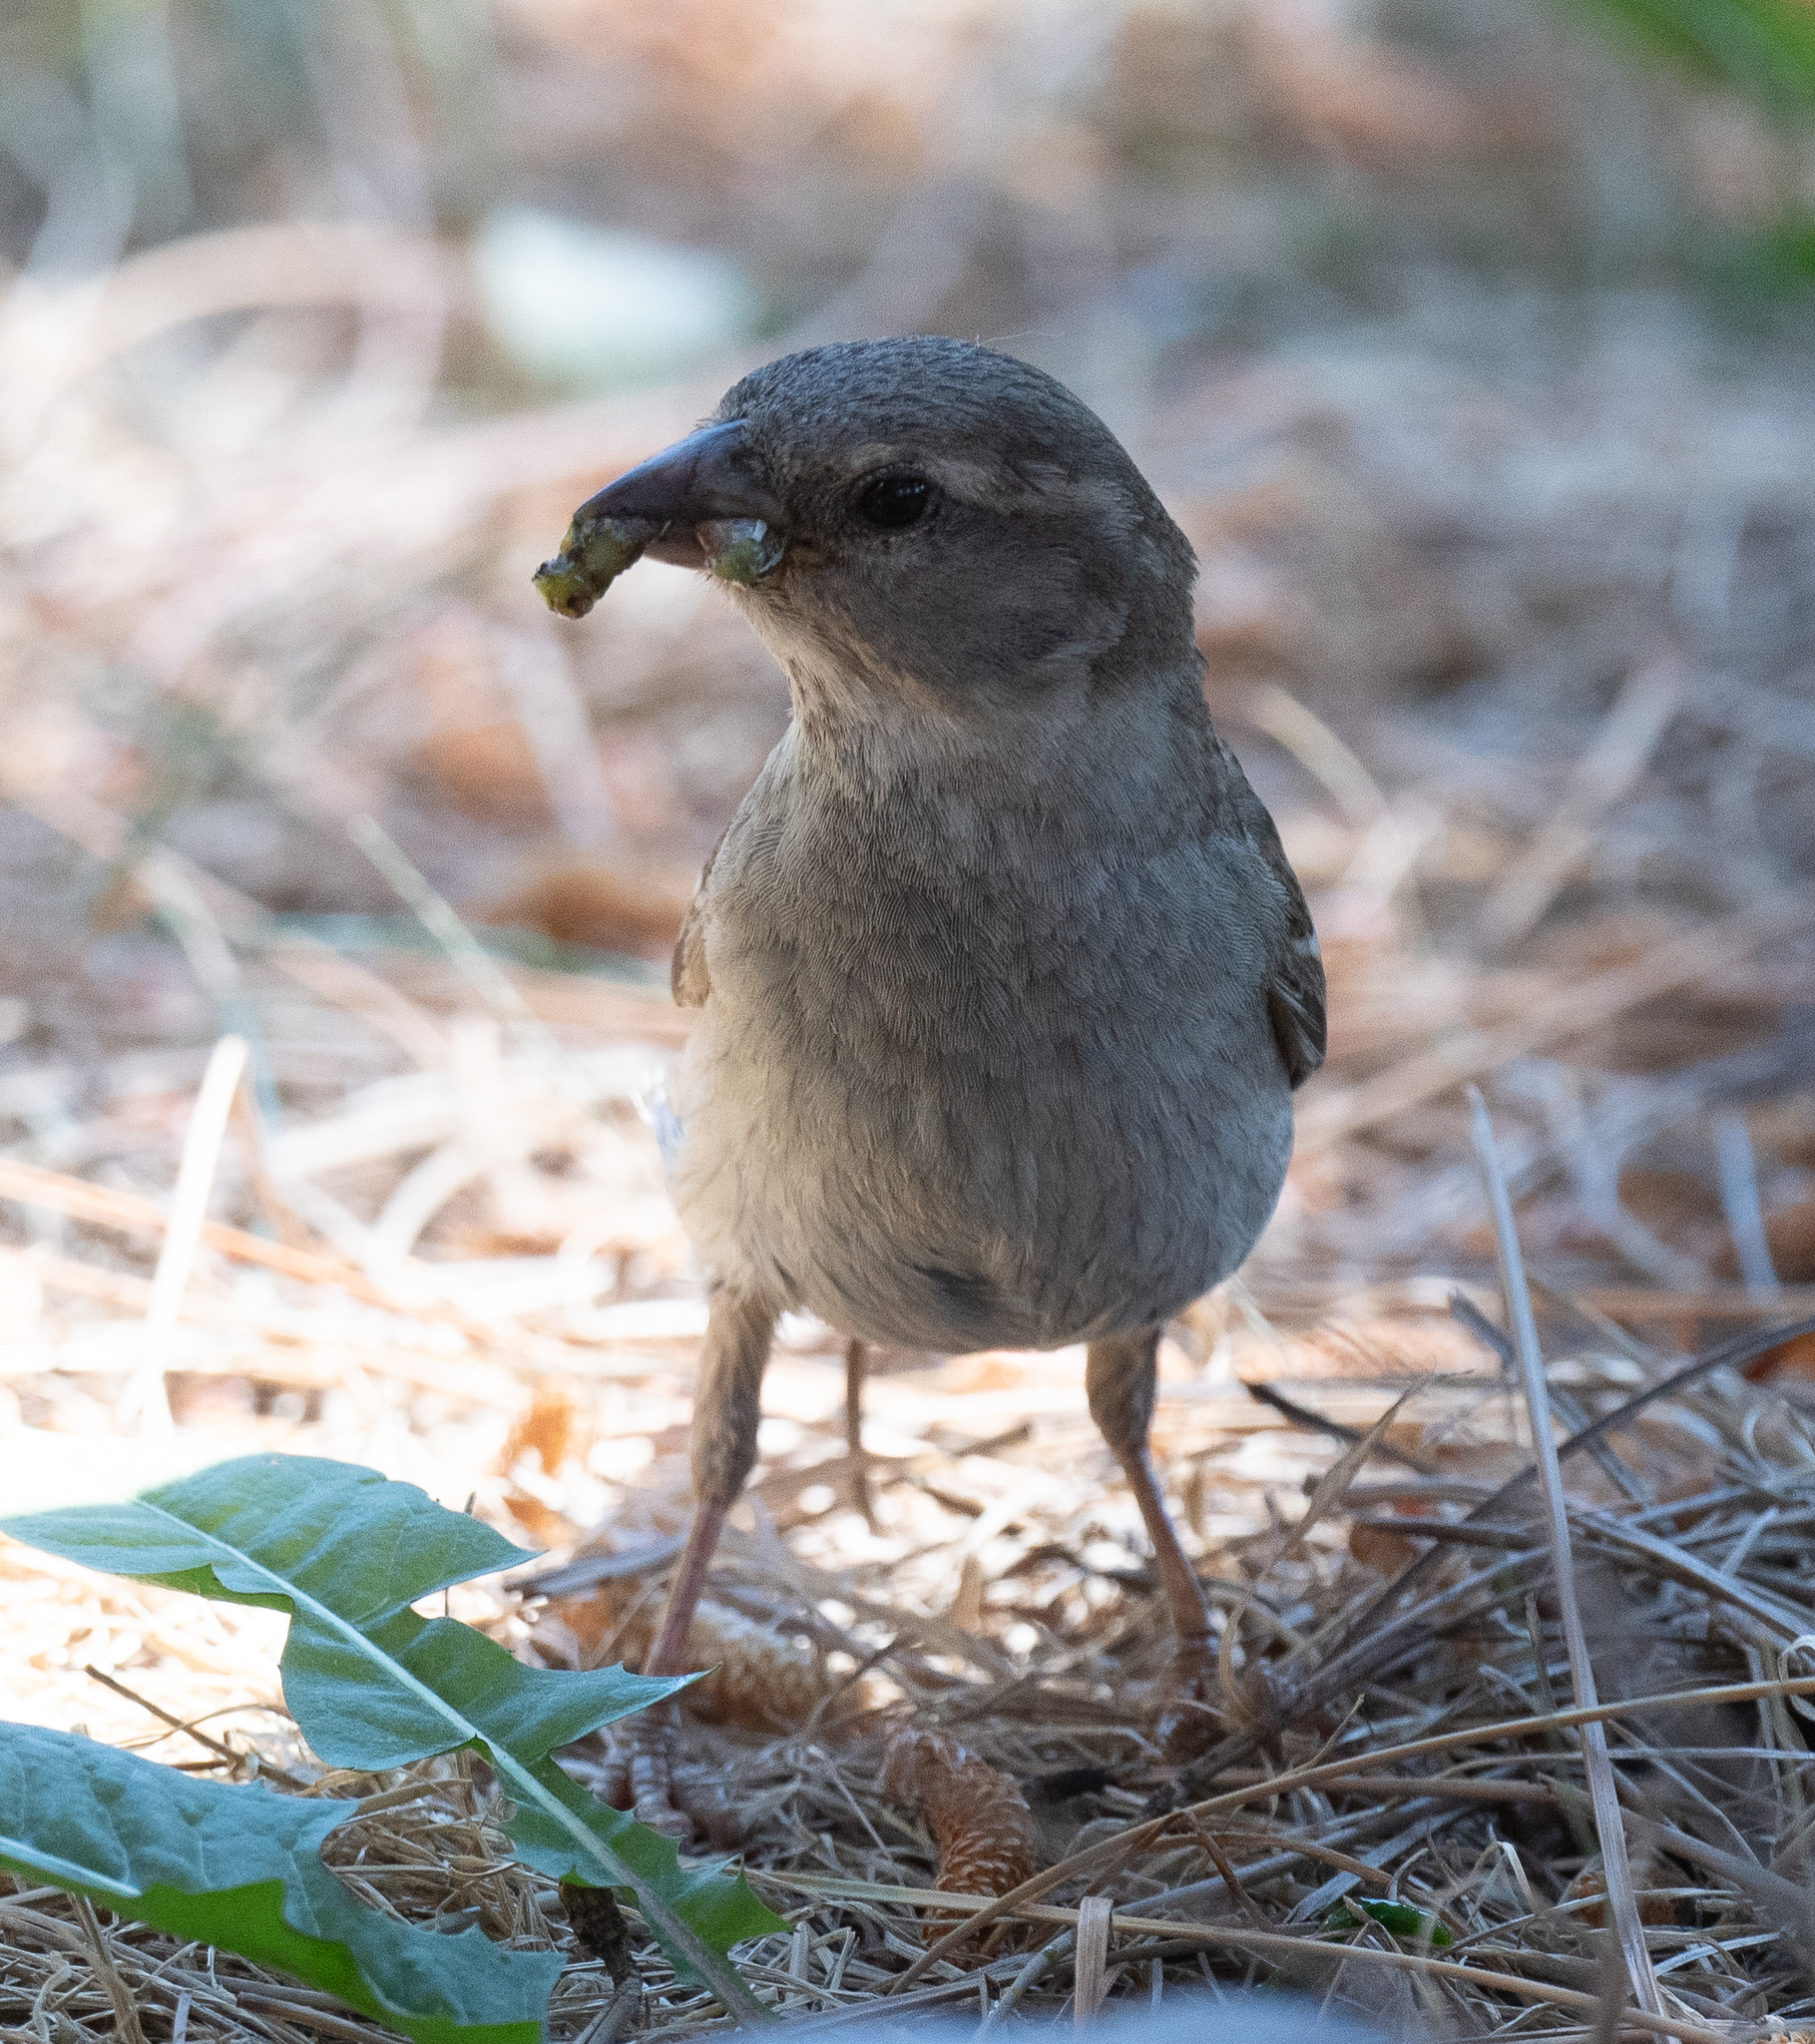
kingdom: Animalia
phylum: Chordata
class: Aves
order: Passeriformes
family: Passeridae
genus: Passer
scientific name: Passer domesticus
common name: House sparrow
